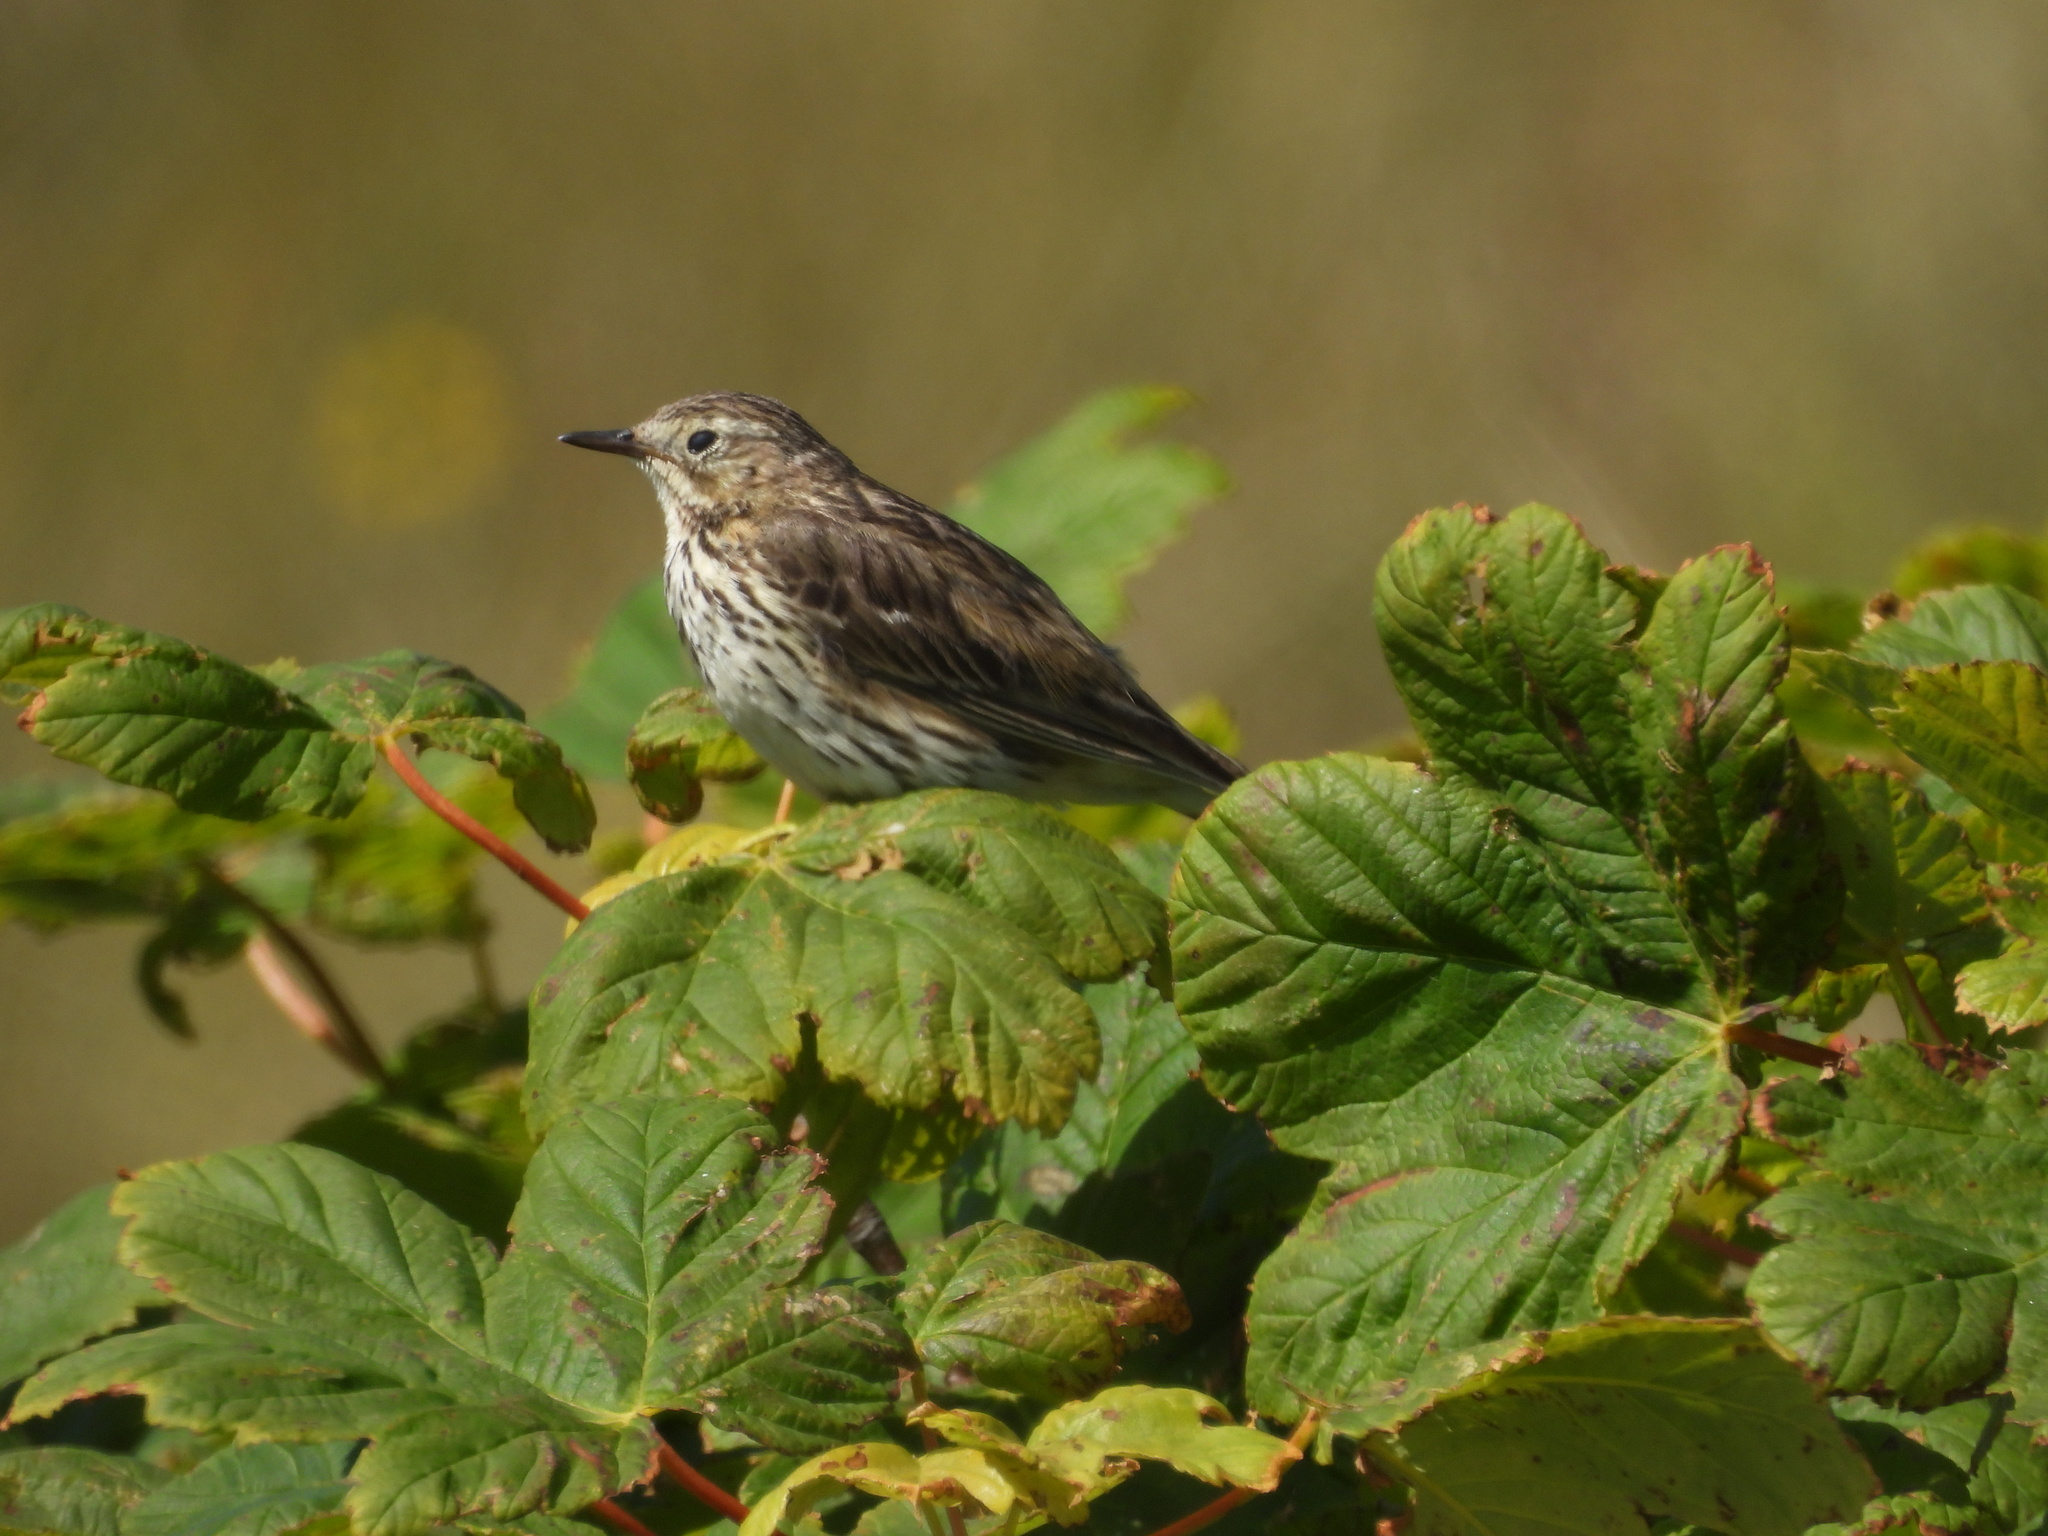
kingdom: Animalia
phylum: Chordata
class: Aves
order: Passeriformes
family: Motacillidae
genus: Anthus
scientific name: Anthus pratensis
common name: Meadow pipit
